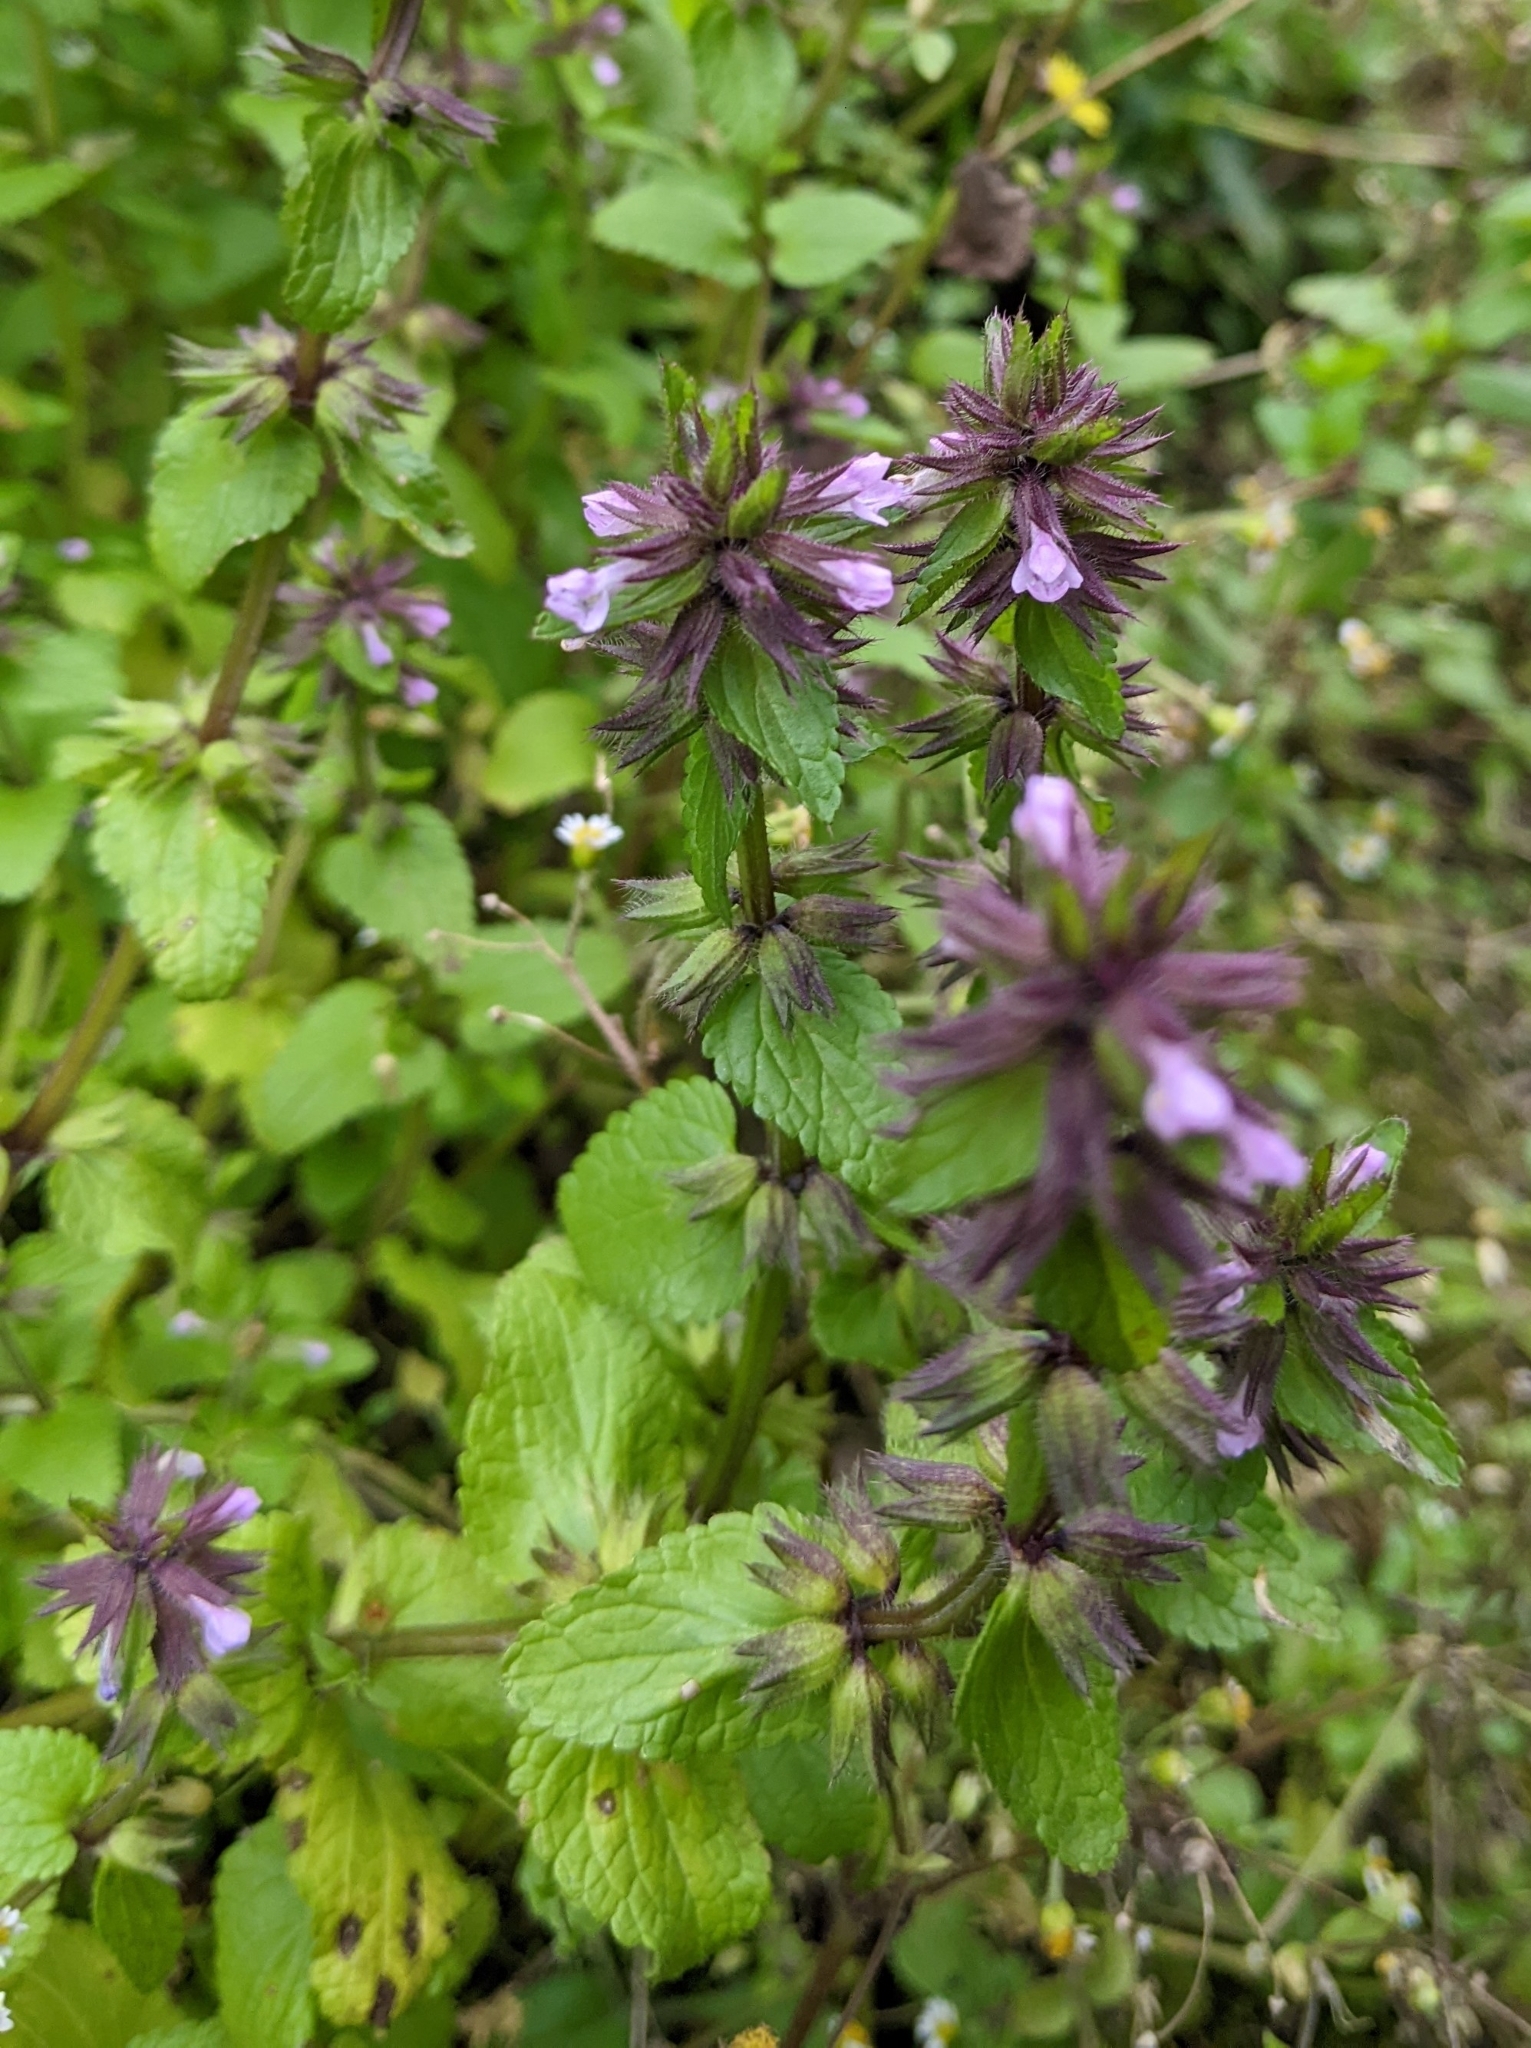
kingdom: Plantae
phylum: Tracheophyta
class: Magnoliopsida
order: Lamiales
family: Lamiaceae
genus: Stachys
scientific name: Stachys arvensis
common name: Field woundwort
